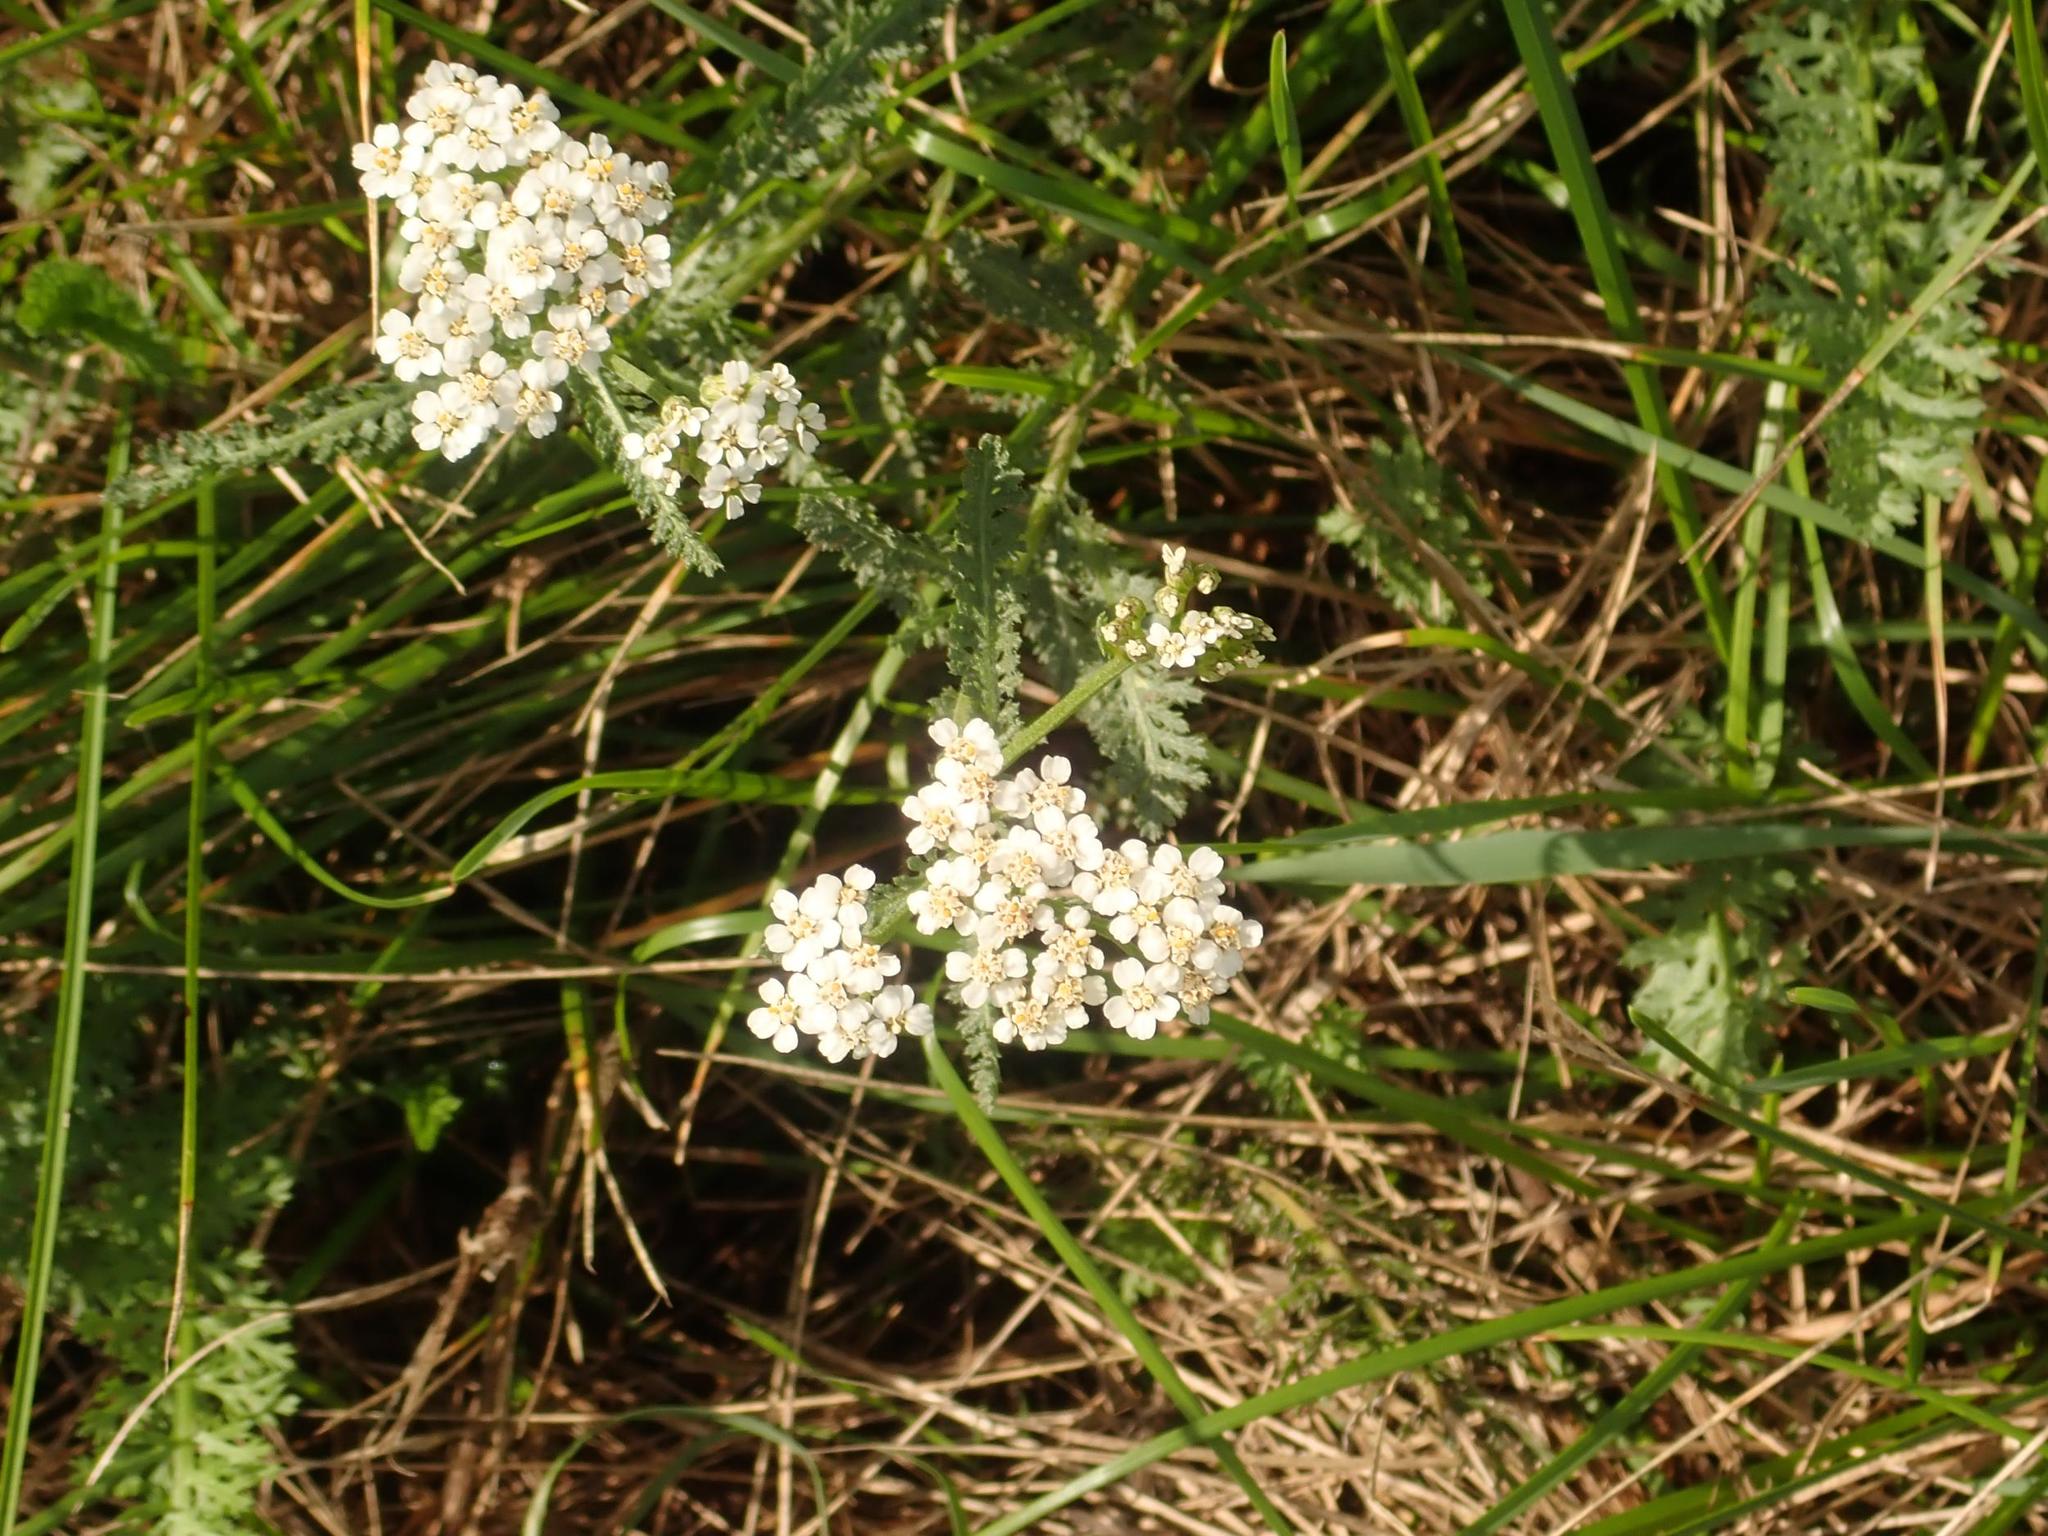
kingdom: Plantae
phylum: Tracheophyta
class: Magnoliopsida
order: Asterales
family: Asteraceae
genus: Achillea
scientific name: Achillea millefolium
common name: Yarrow
